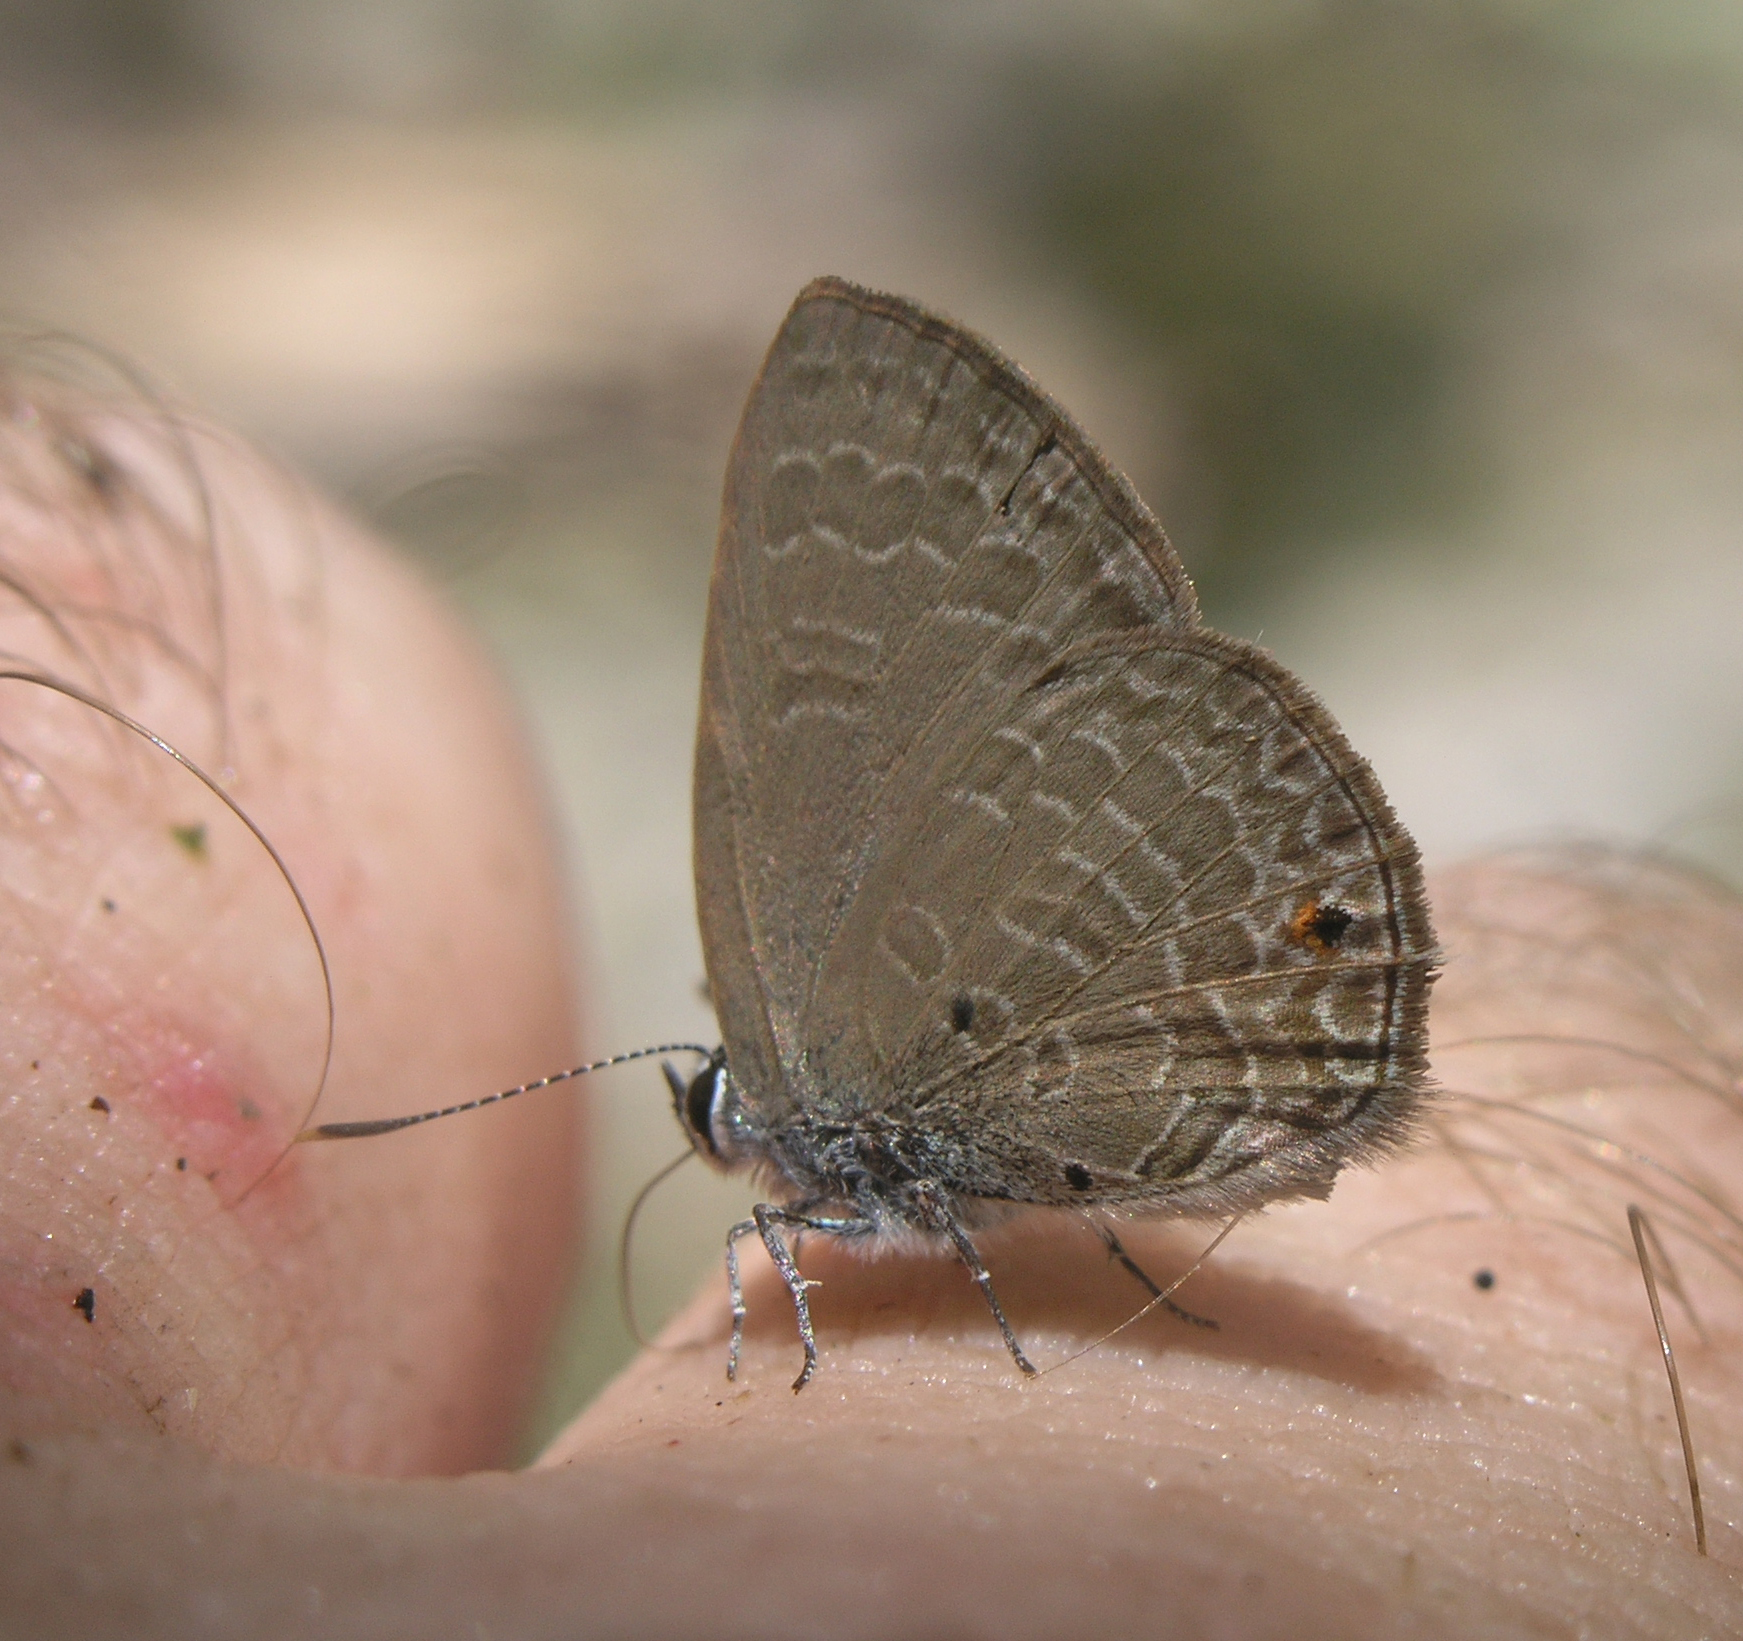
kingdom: Animalia
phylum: Arthropoda
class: Insecta
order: Lepidoptera
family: Lycaenidae
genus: Anthene
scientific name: Anthene emolus
